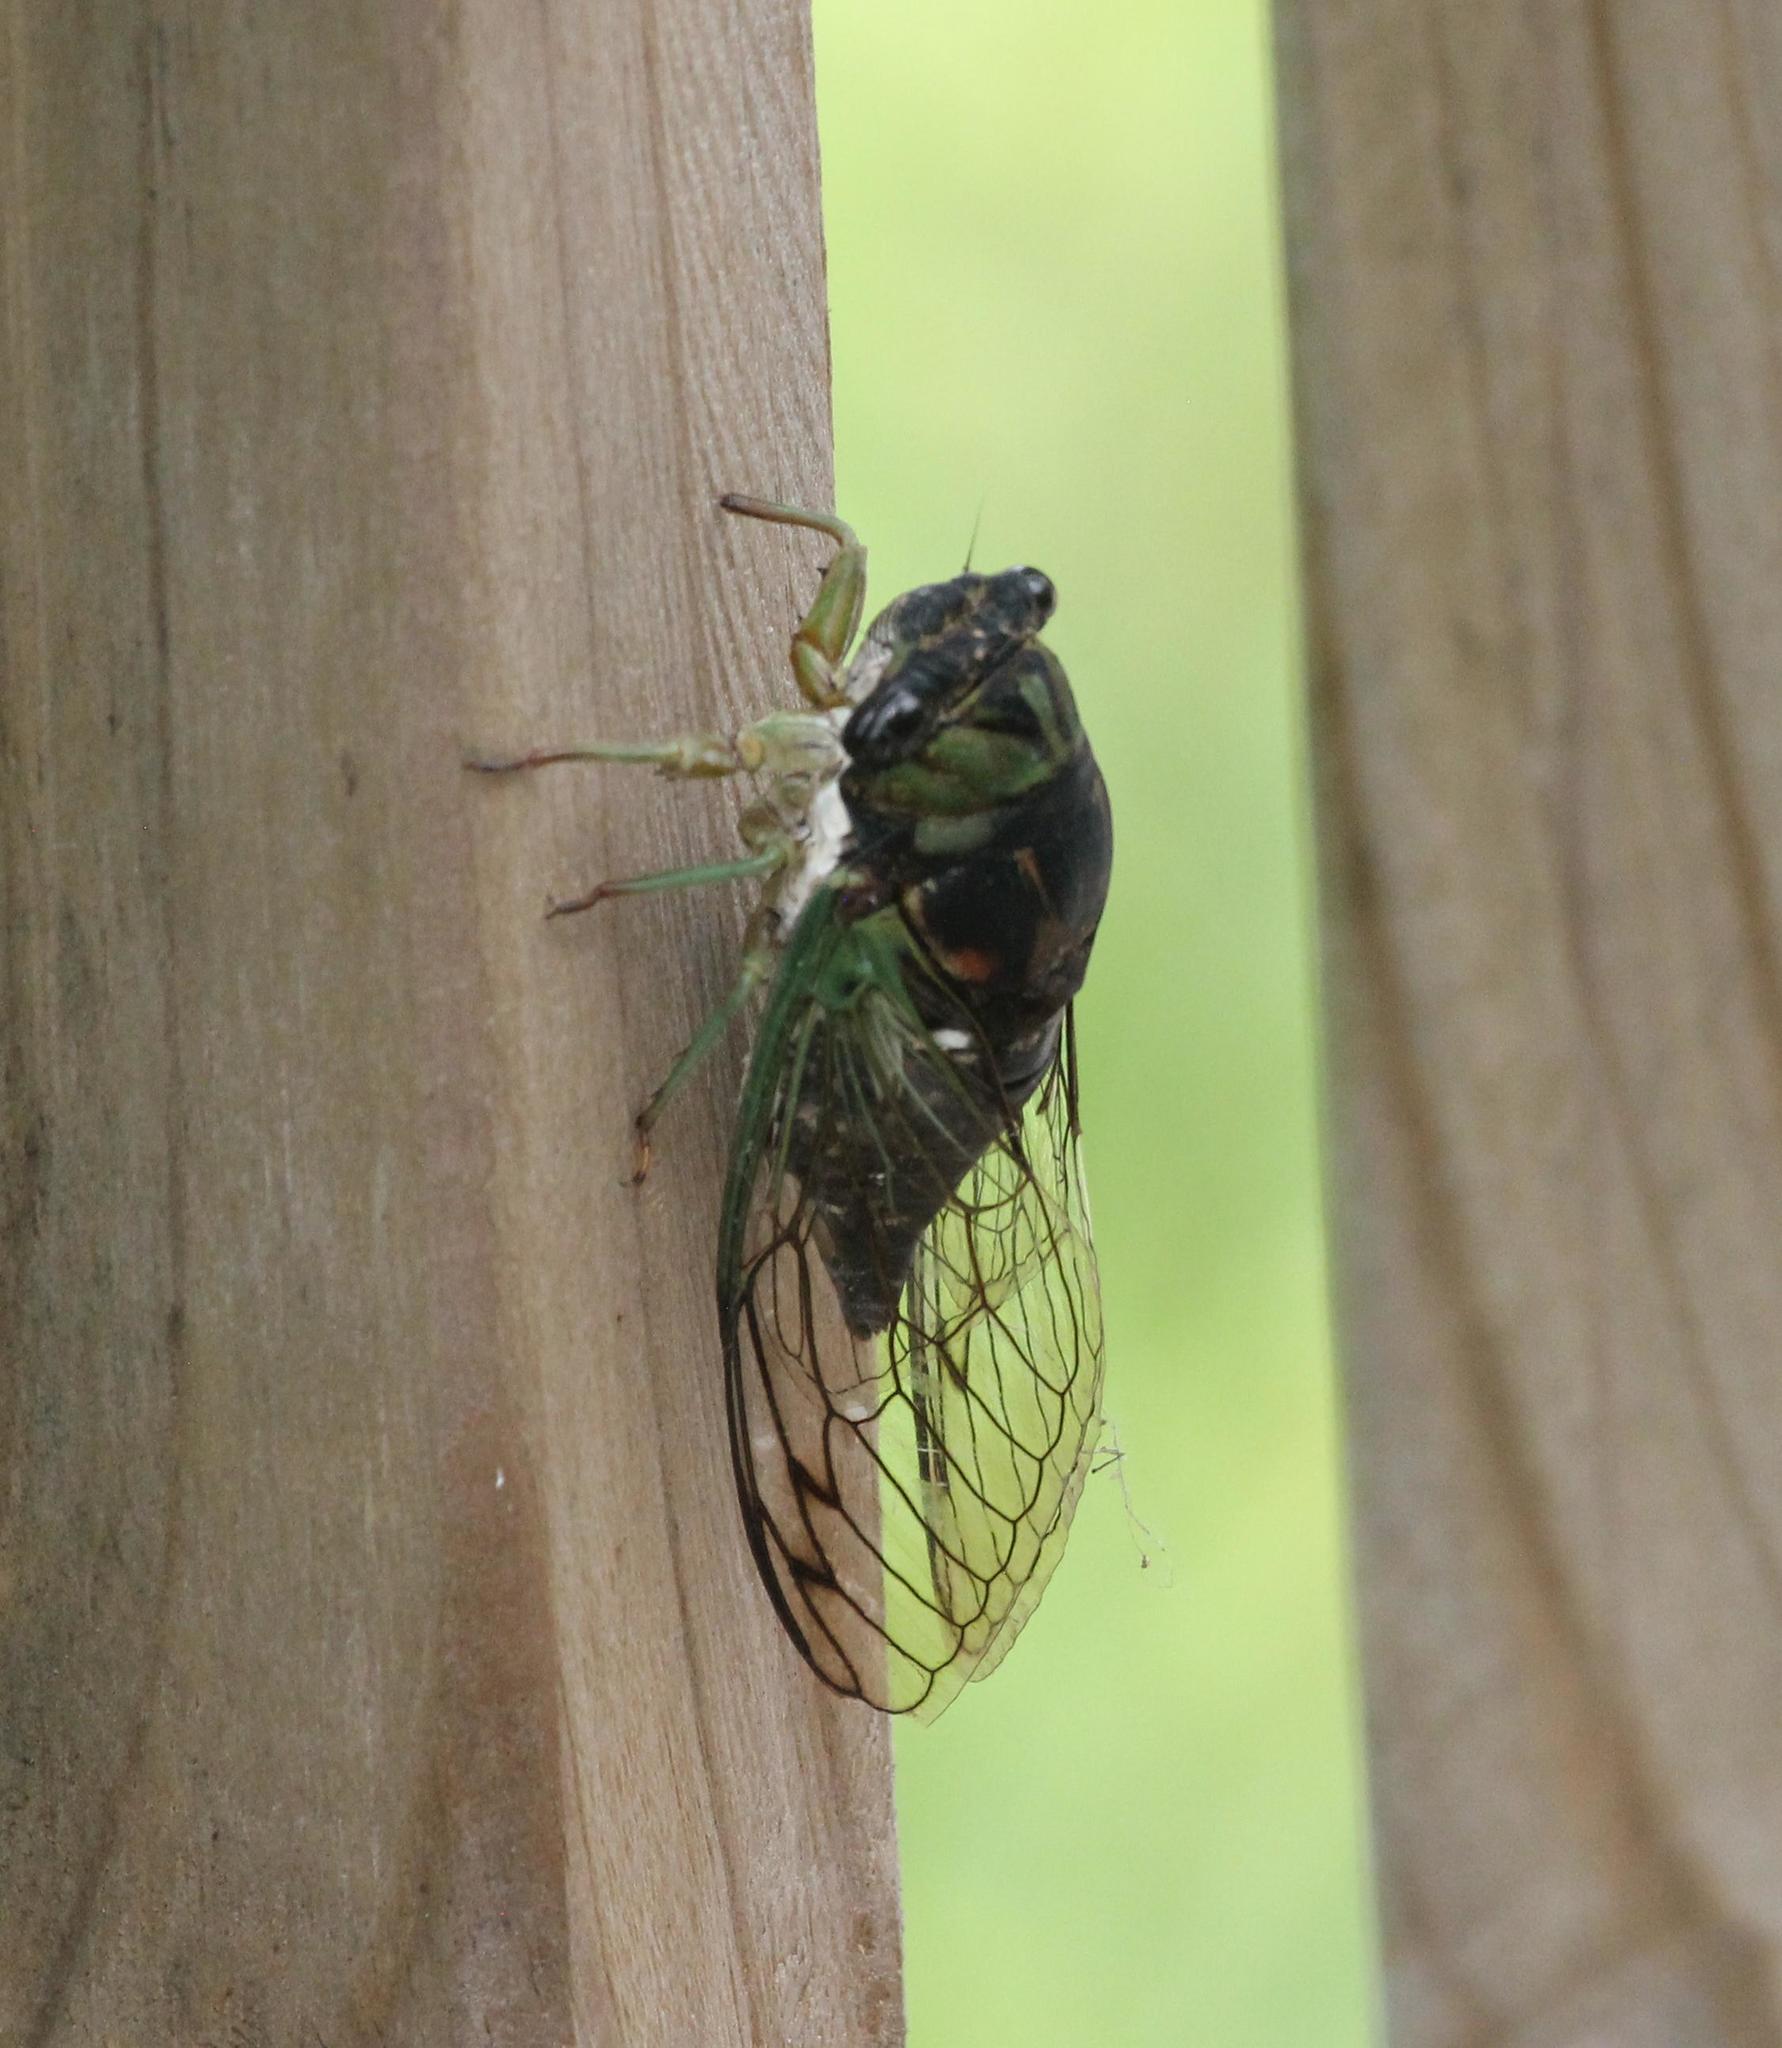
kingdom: Animalia
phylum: Arthropoda
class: Insecta
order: Hemiptera
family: Cicadidae
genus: Neotibicen
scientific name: Neotibicen tibicen
